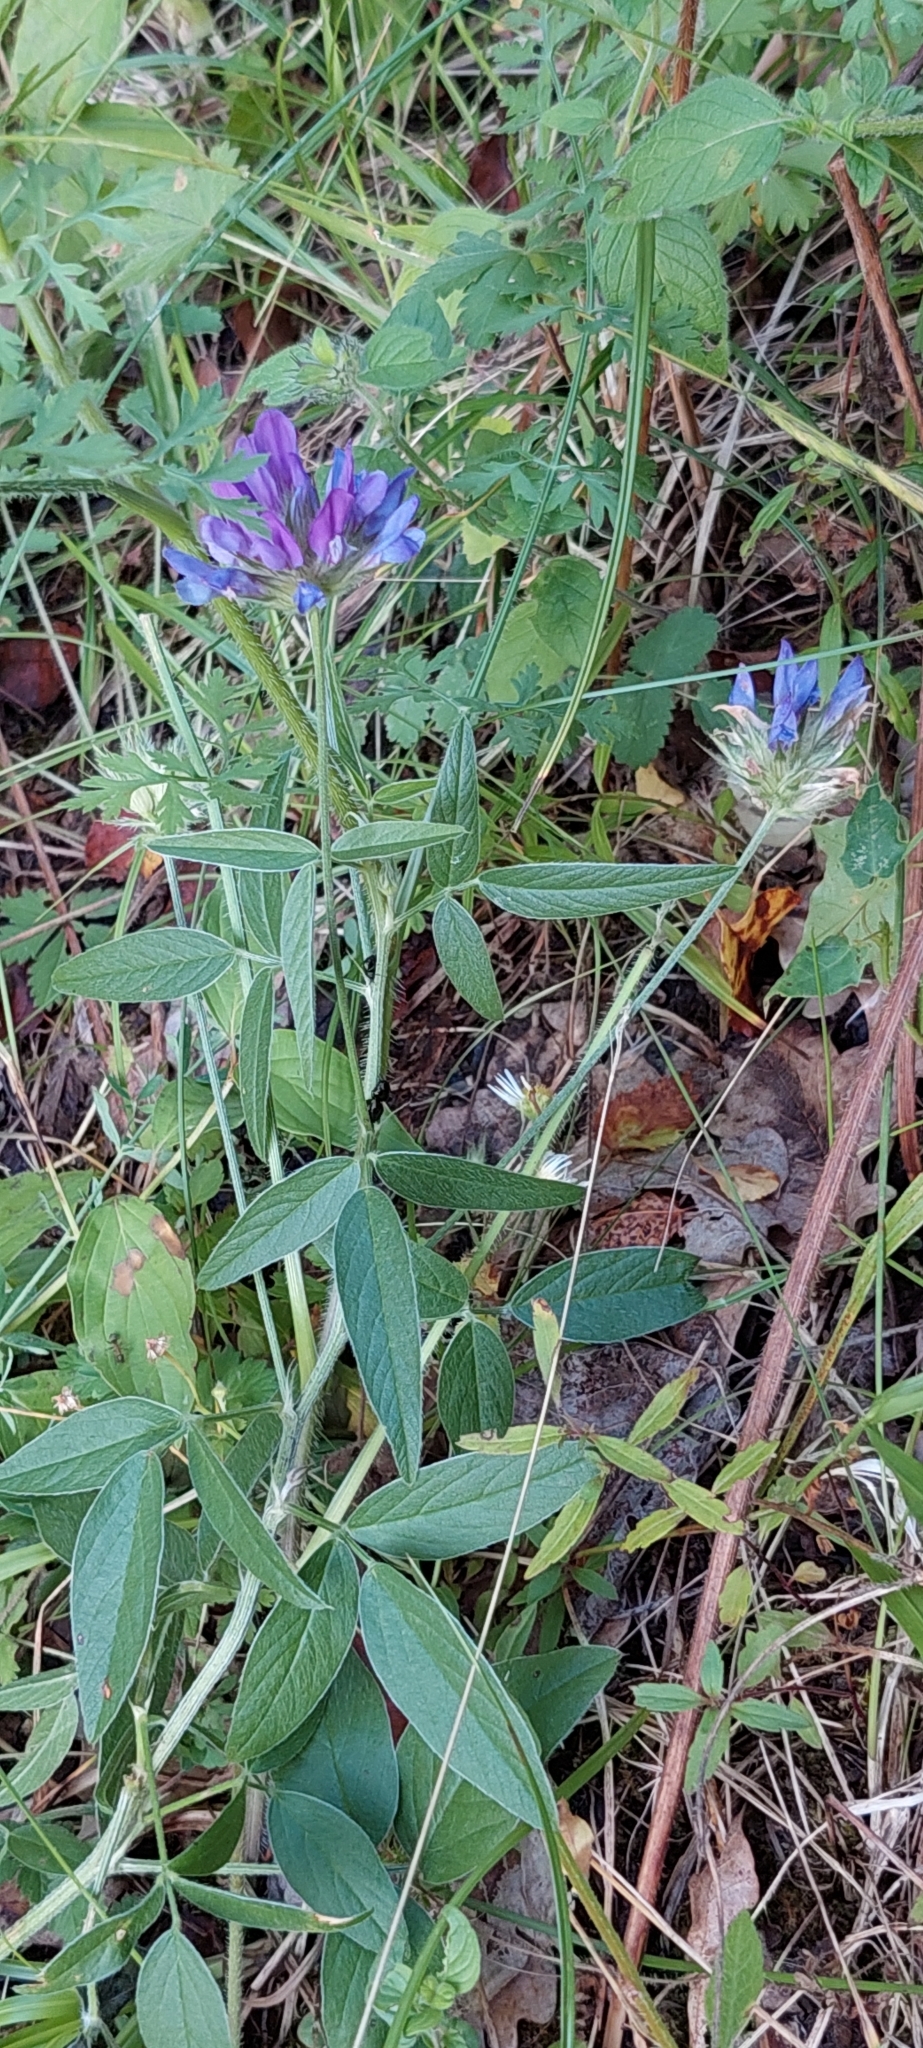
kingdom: Plantae
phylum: Tracheophyta
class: Magnoliopsida
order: Fabales
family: Fabaceae
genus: Bituminaria
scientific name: Bituminaria bituminosa
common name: Arabian pea
